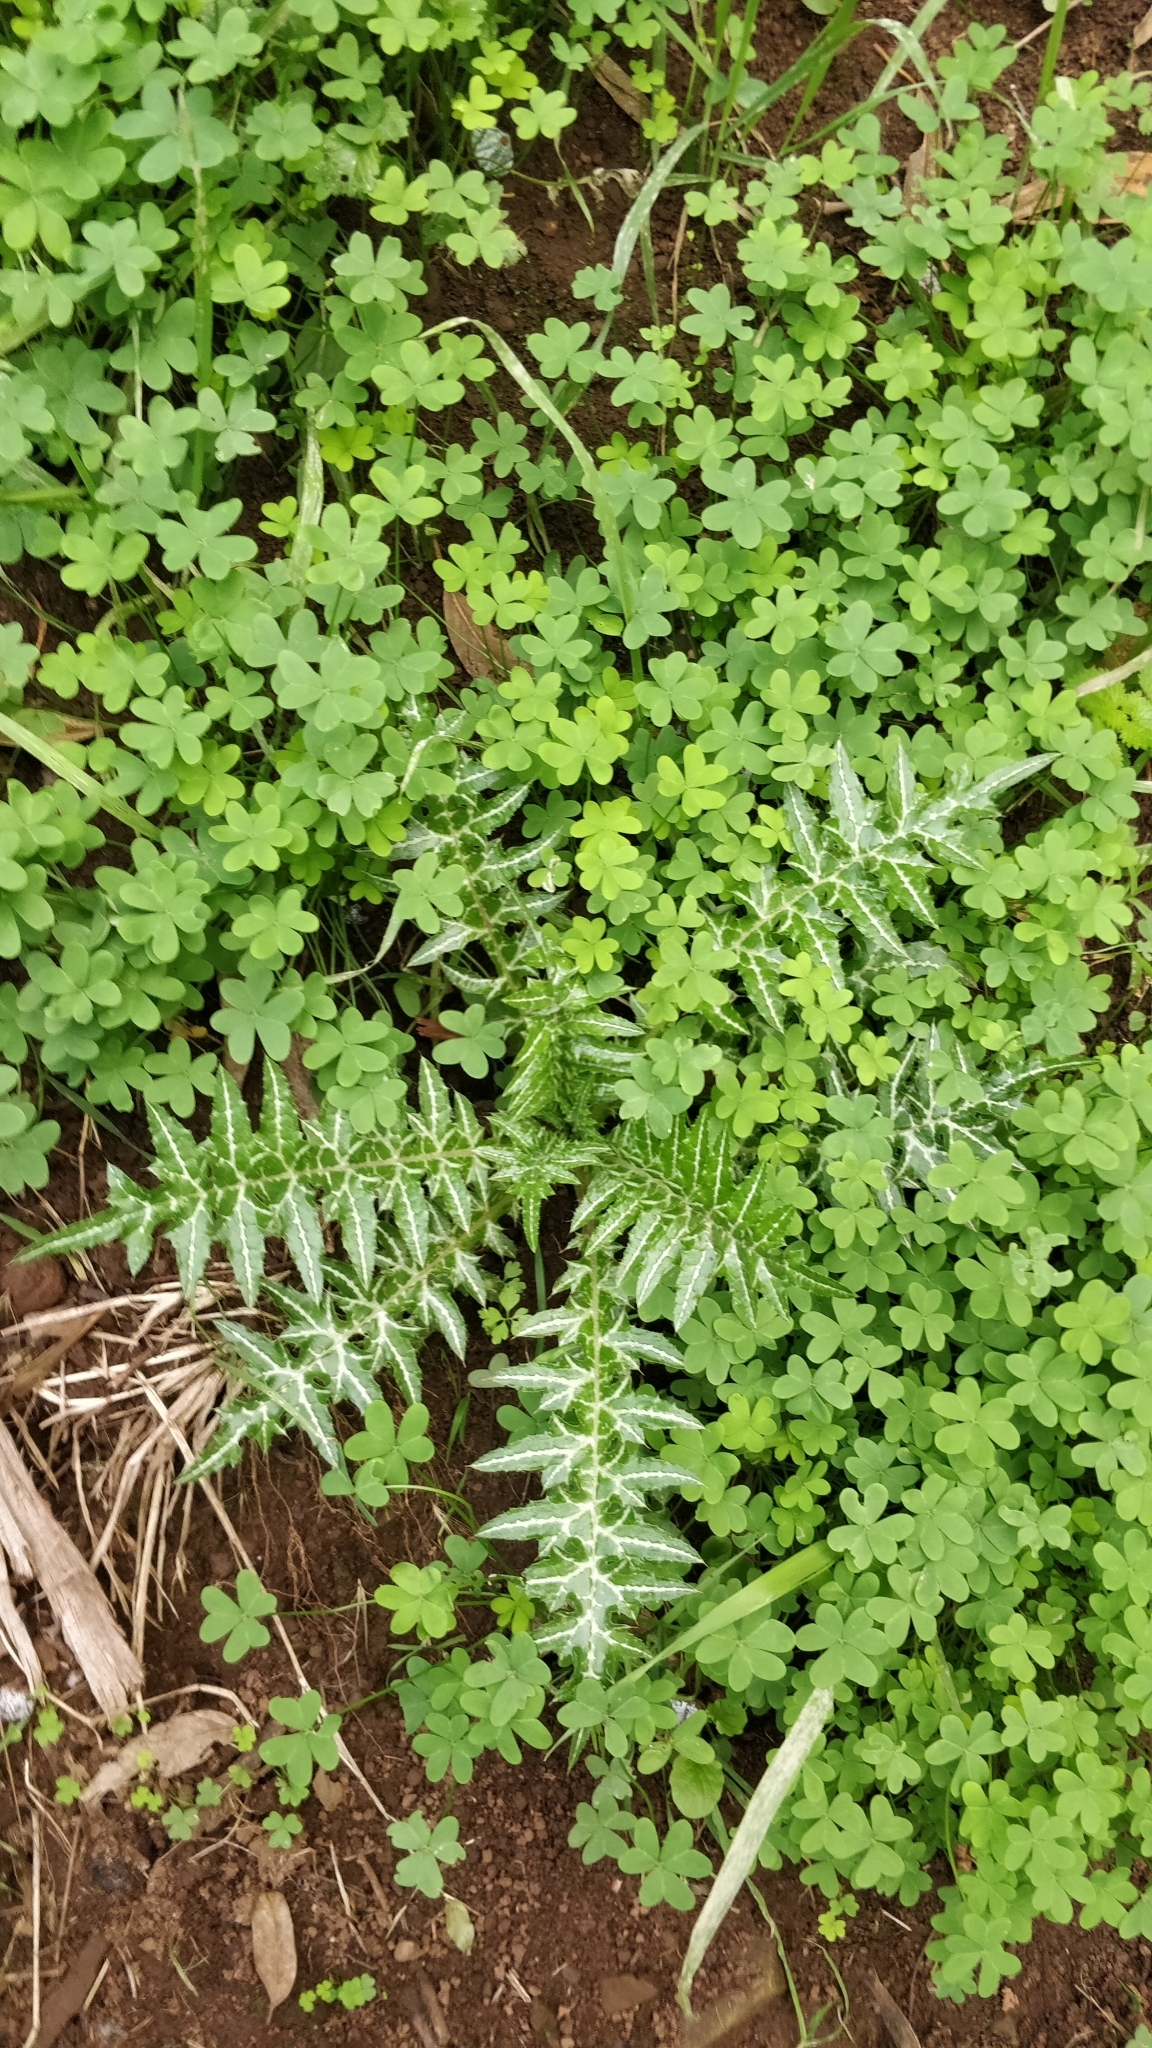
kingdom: Plantae
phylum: Tracheophyta
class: Magnoliopsida
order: Asterales
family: Asteraceae
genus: Galactites
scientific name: Galactites tomentosa
